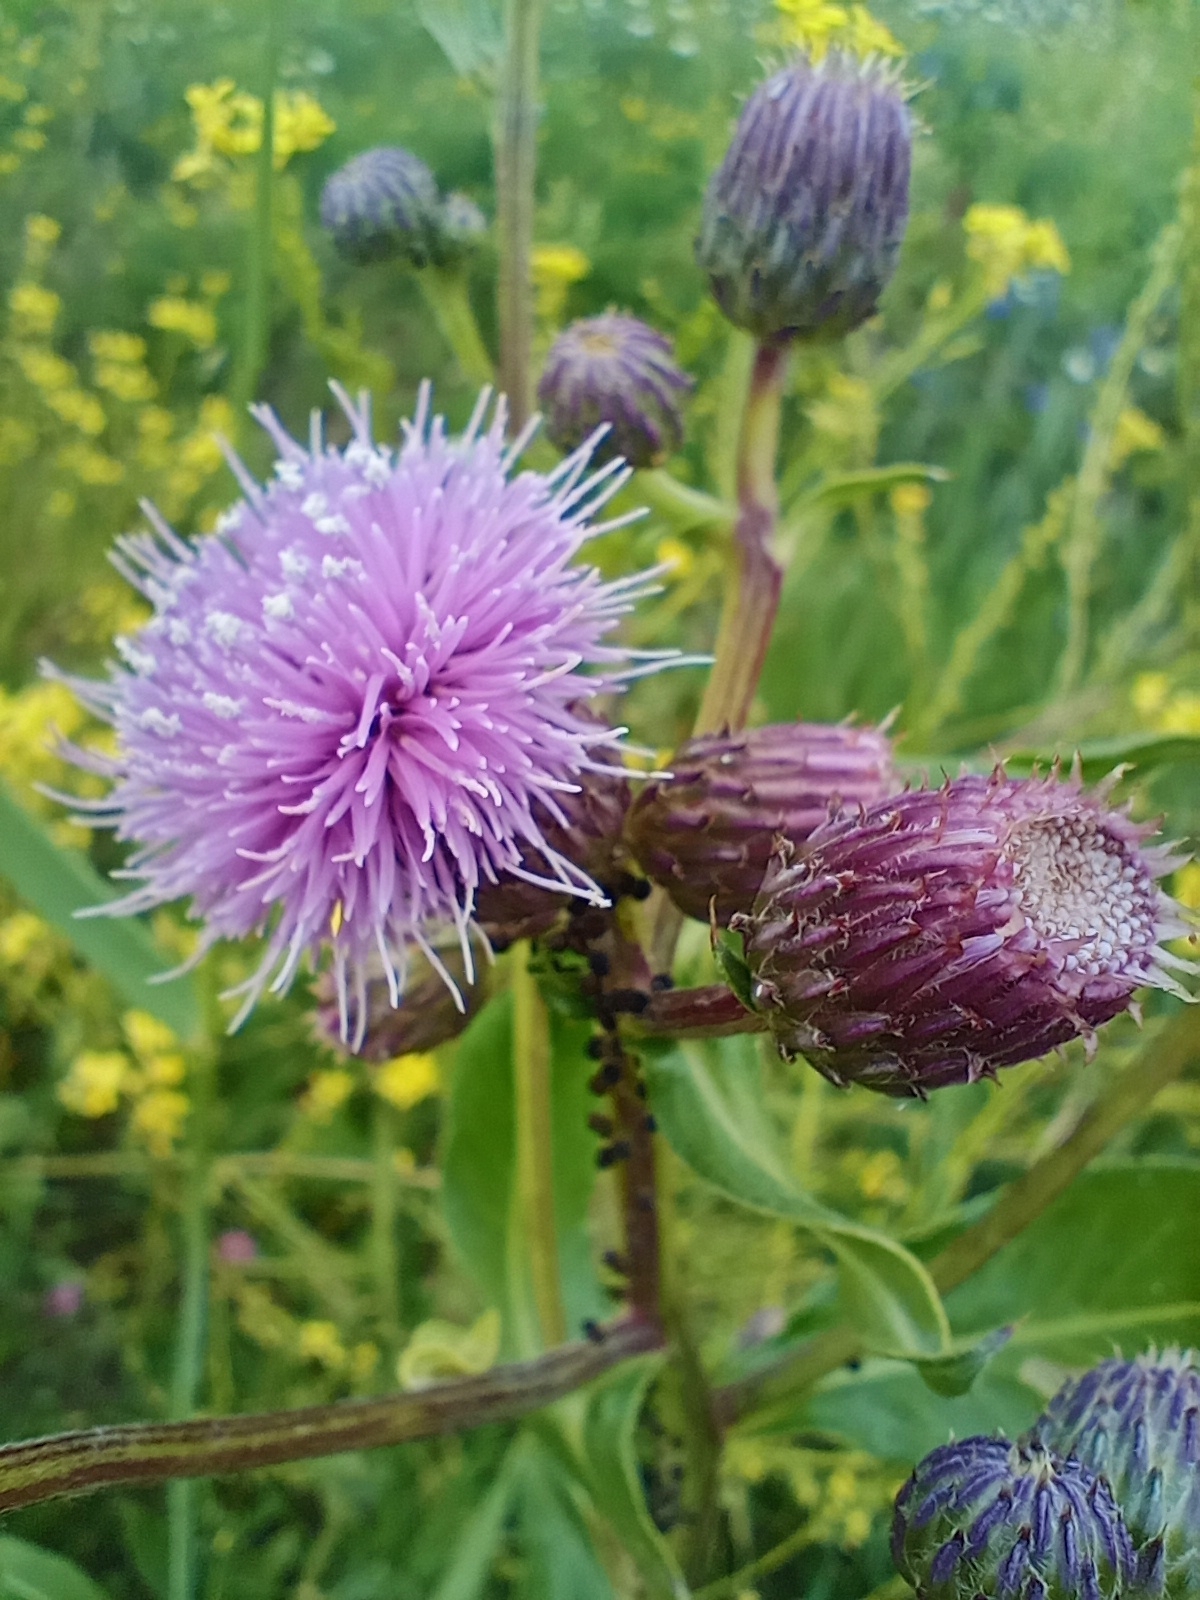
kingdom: Plantae
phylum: Tracheophyta
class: Magnoliopsida
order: Asterales
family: Asteraceae
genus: Cirsium
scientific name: Cirsium arvense
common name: Creeping thistle
